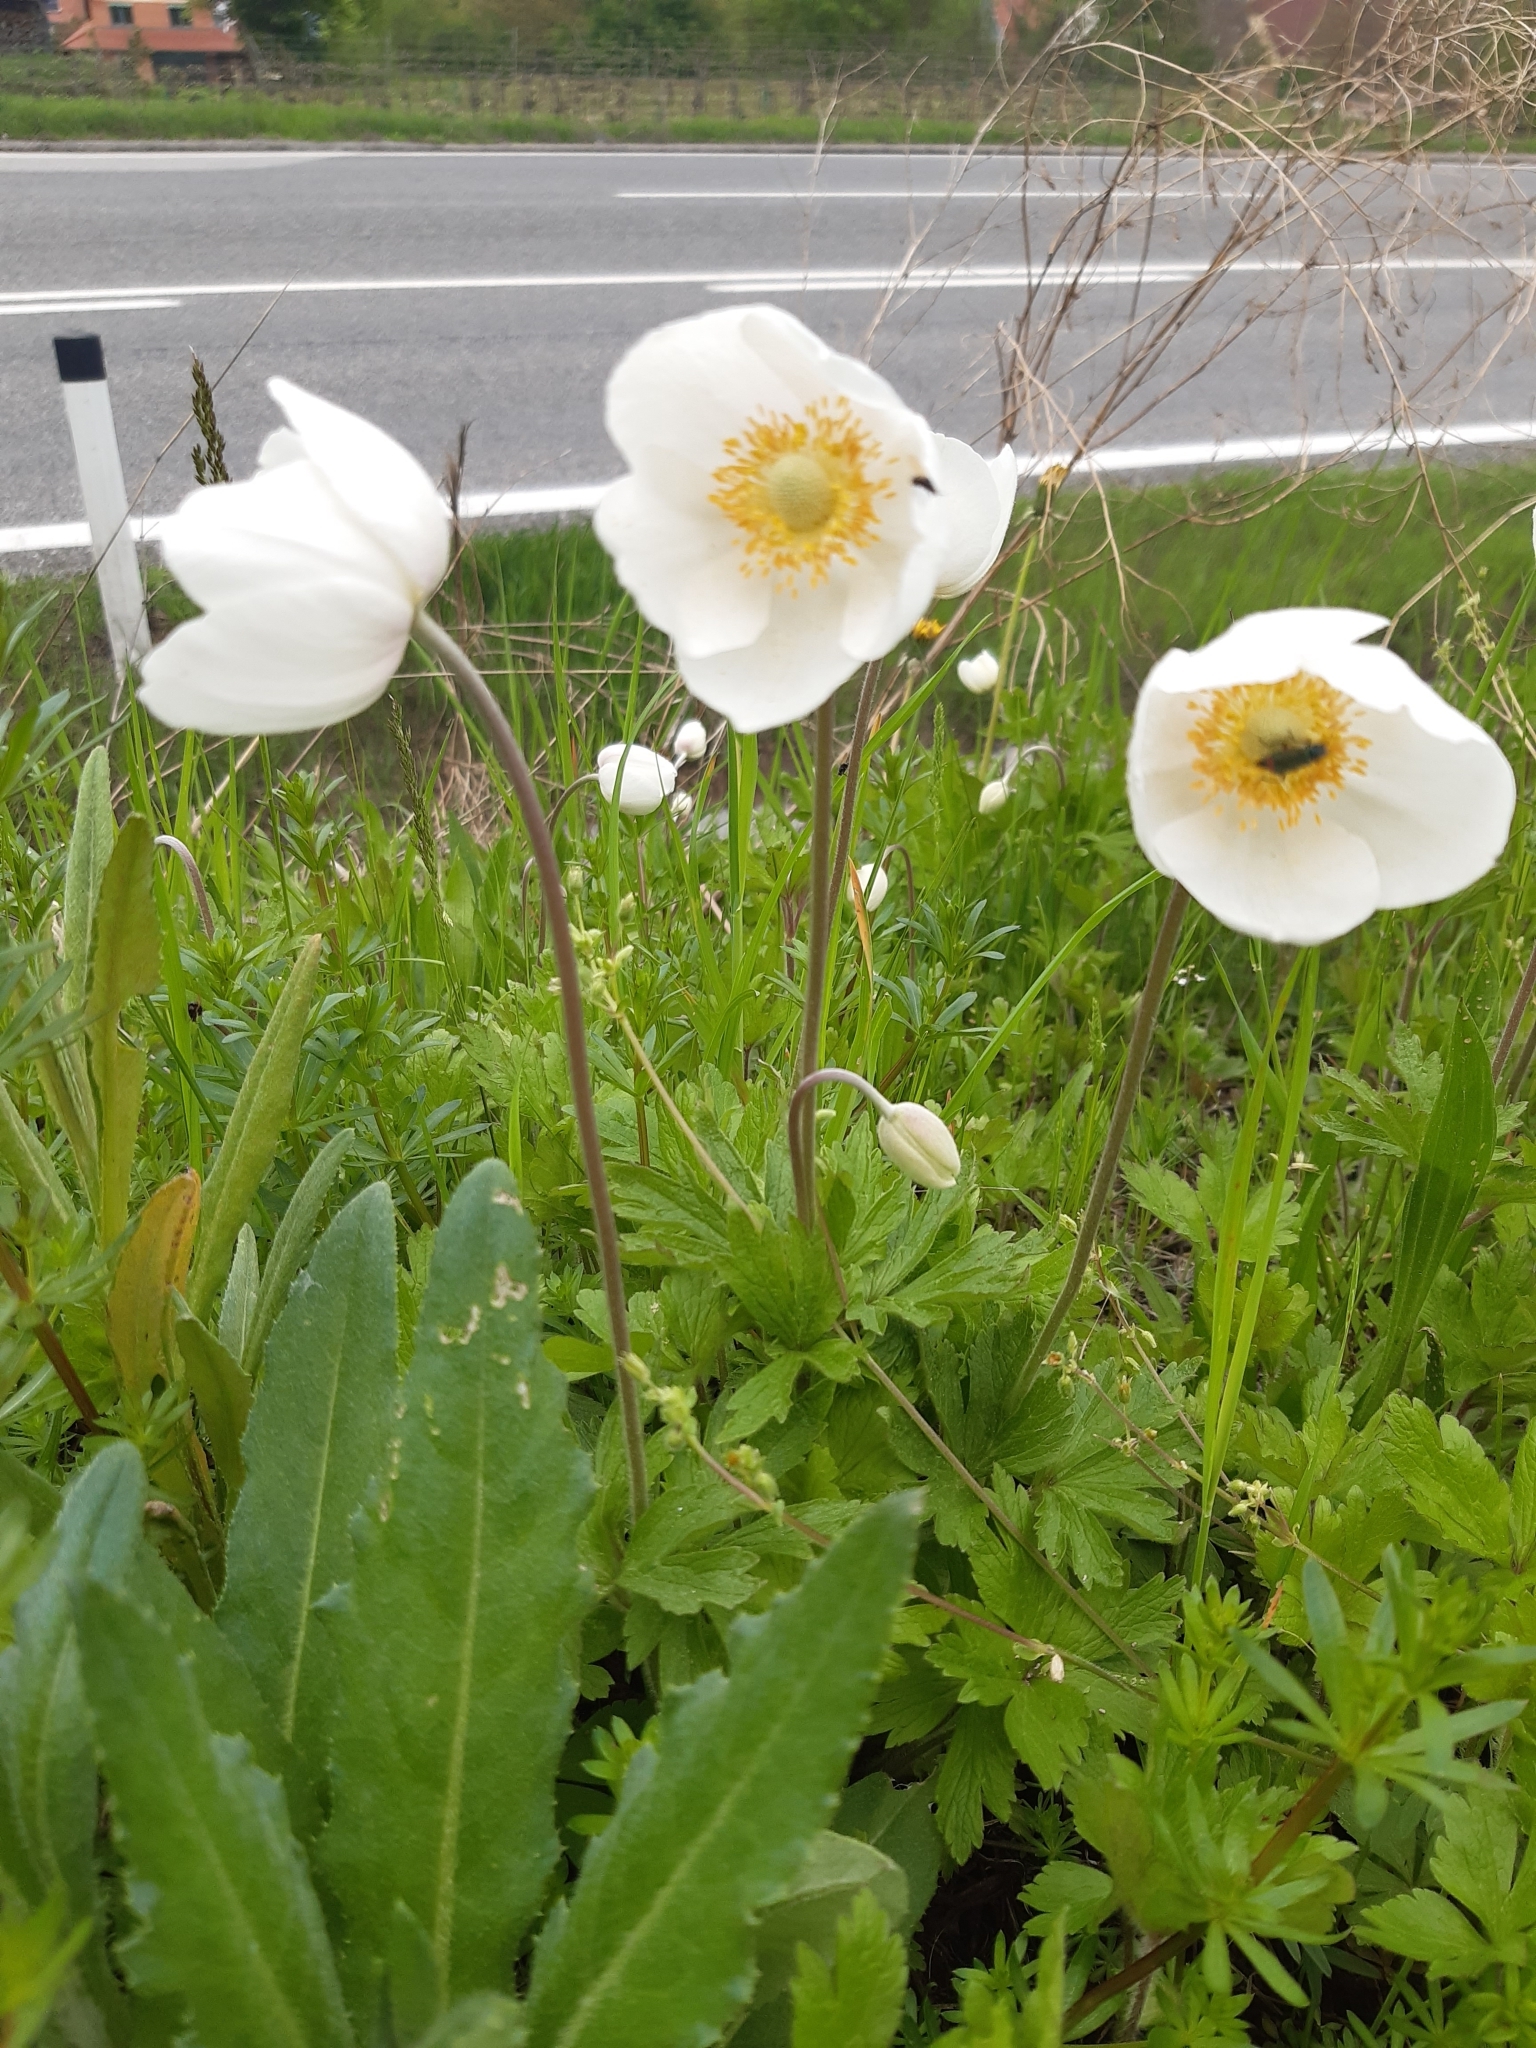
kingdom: Plantae
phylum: Tracheophyta
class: Magnoliopsida
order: Ranunculales
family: Ranunculaceae
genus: Anemone
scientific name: Anemone sylvestris
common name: Snowdrop anemone
